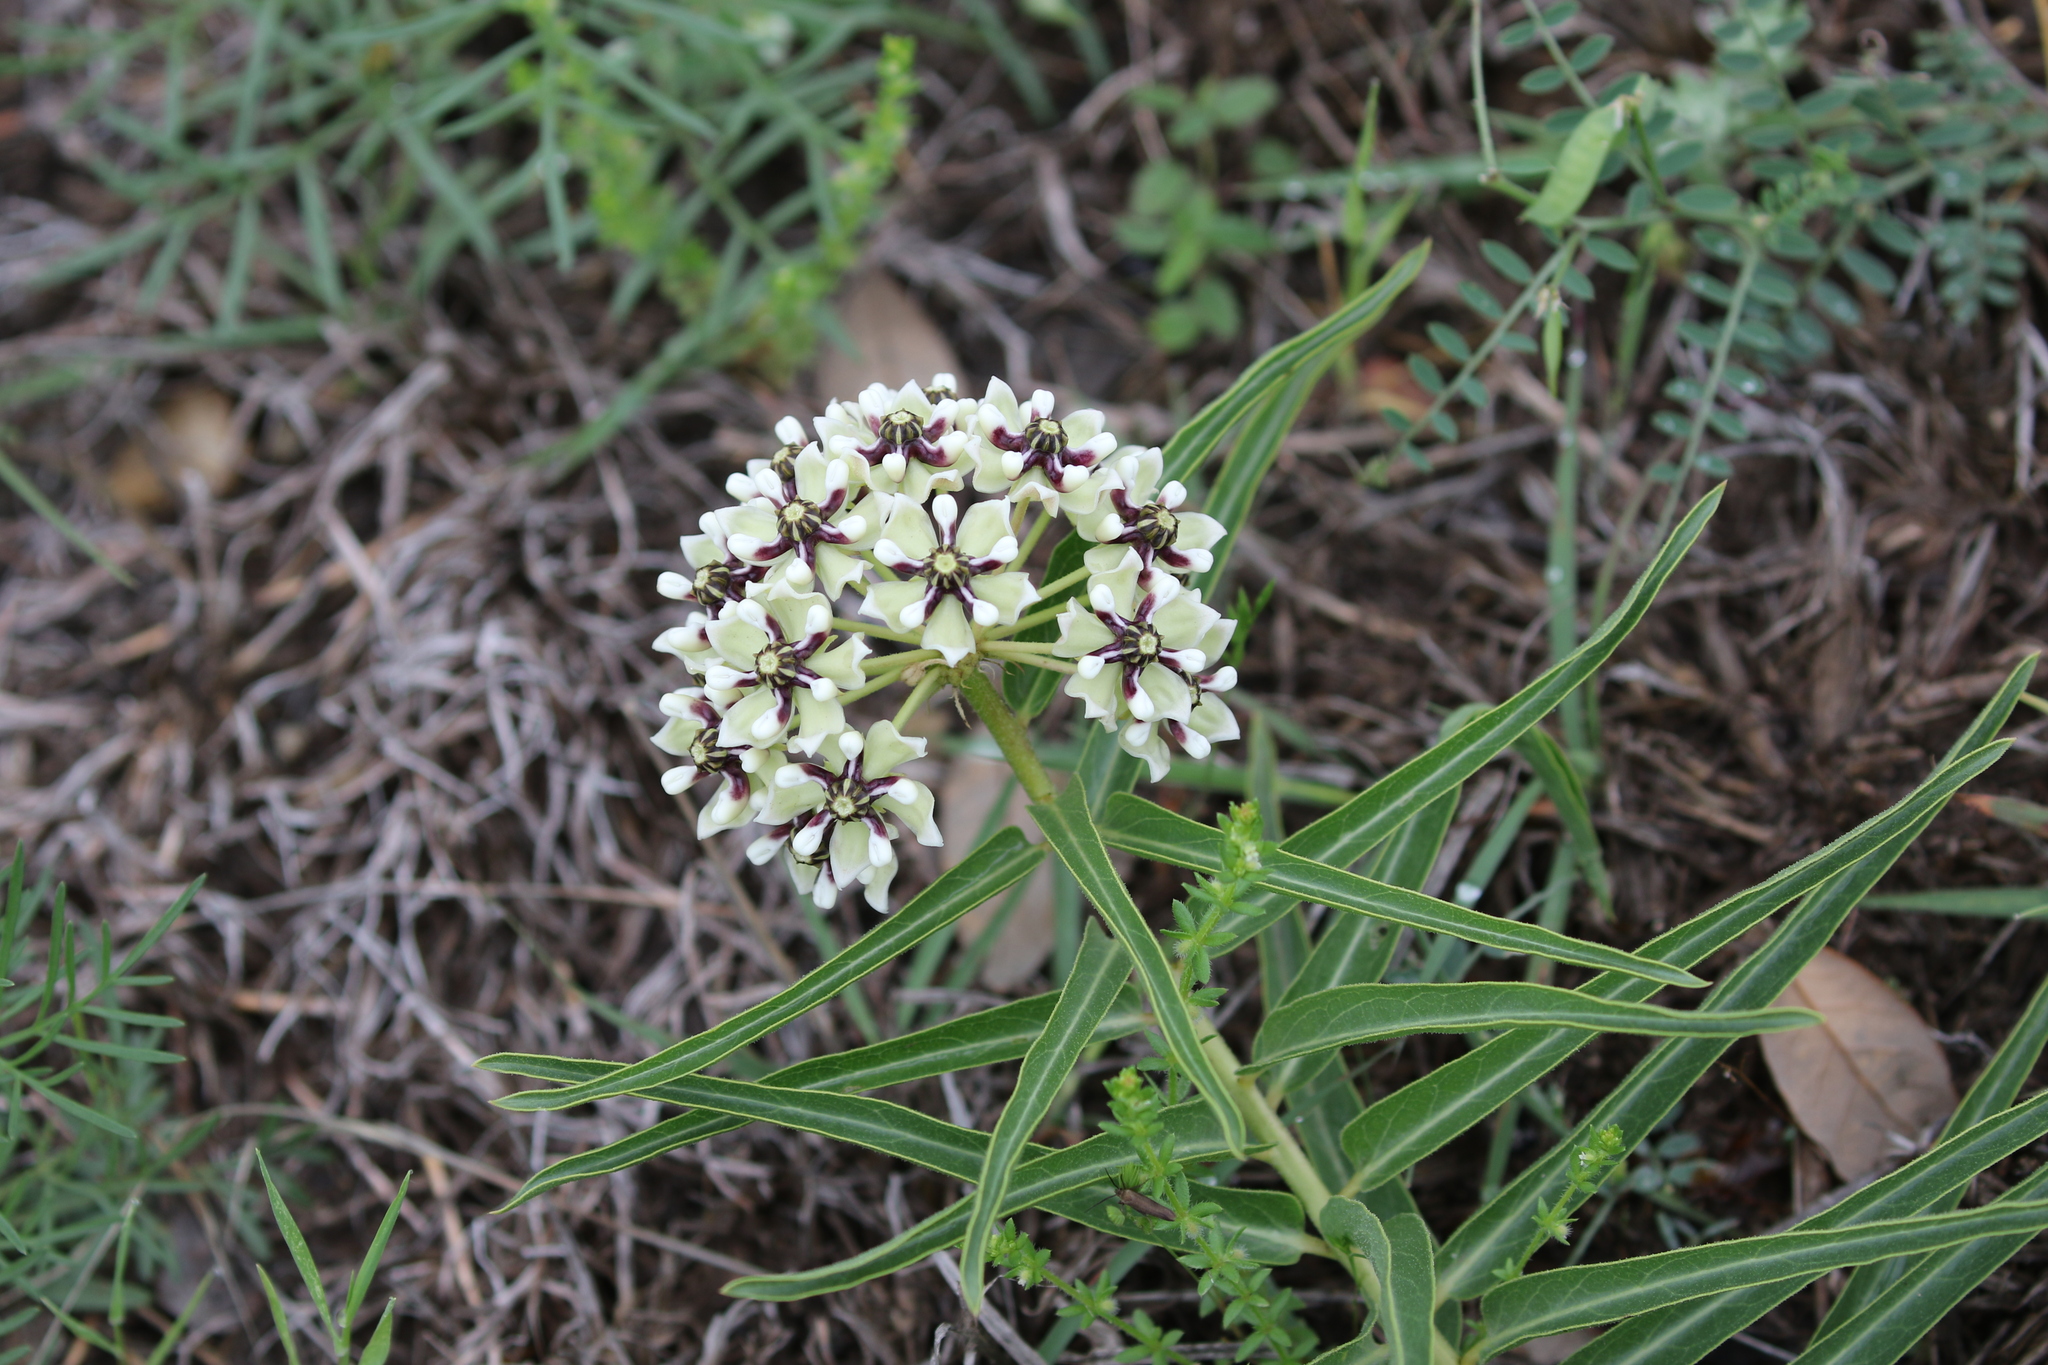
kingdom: Plantae
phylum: Tracheophyta
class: Magnoliopsida
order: Gentianales
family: Apocynaceae
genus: Asclepias
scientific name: Asclepias asperula
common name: Antelope horns
